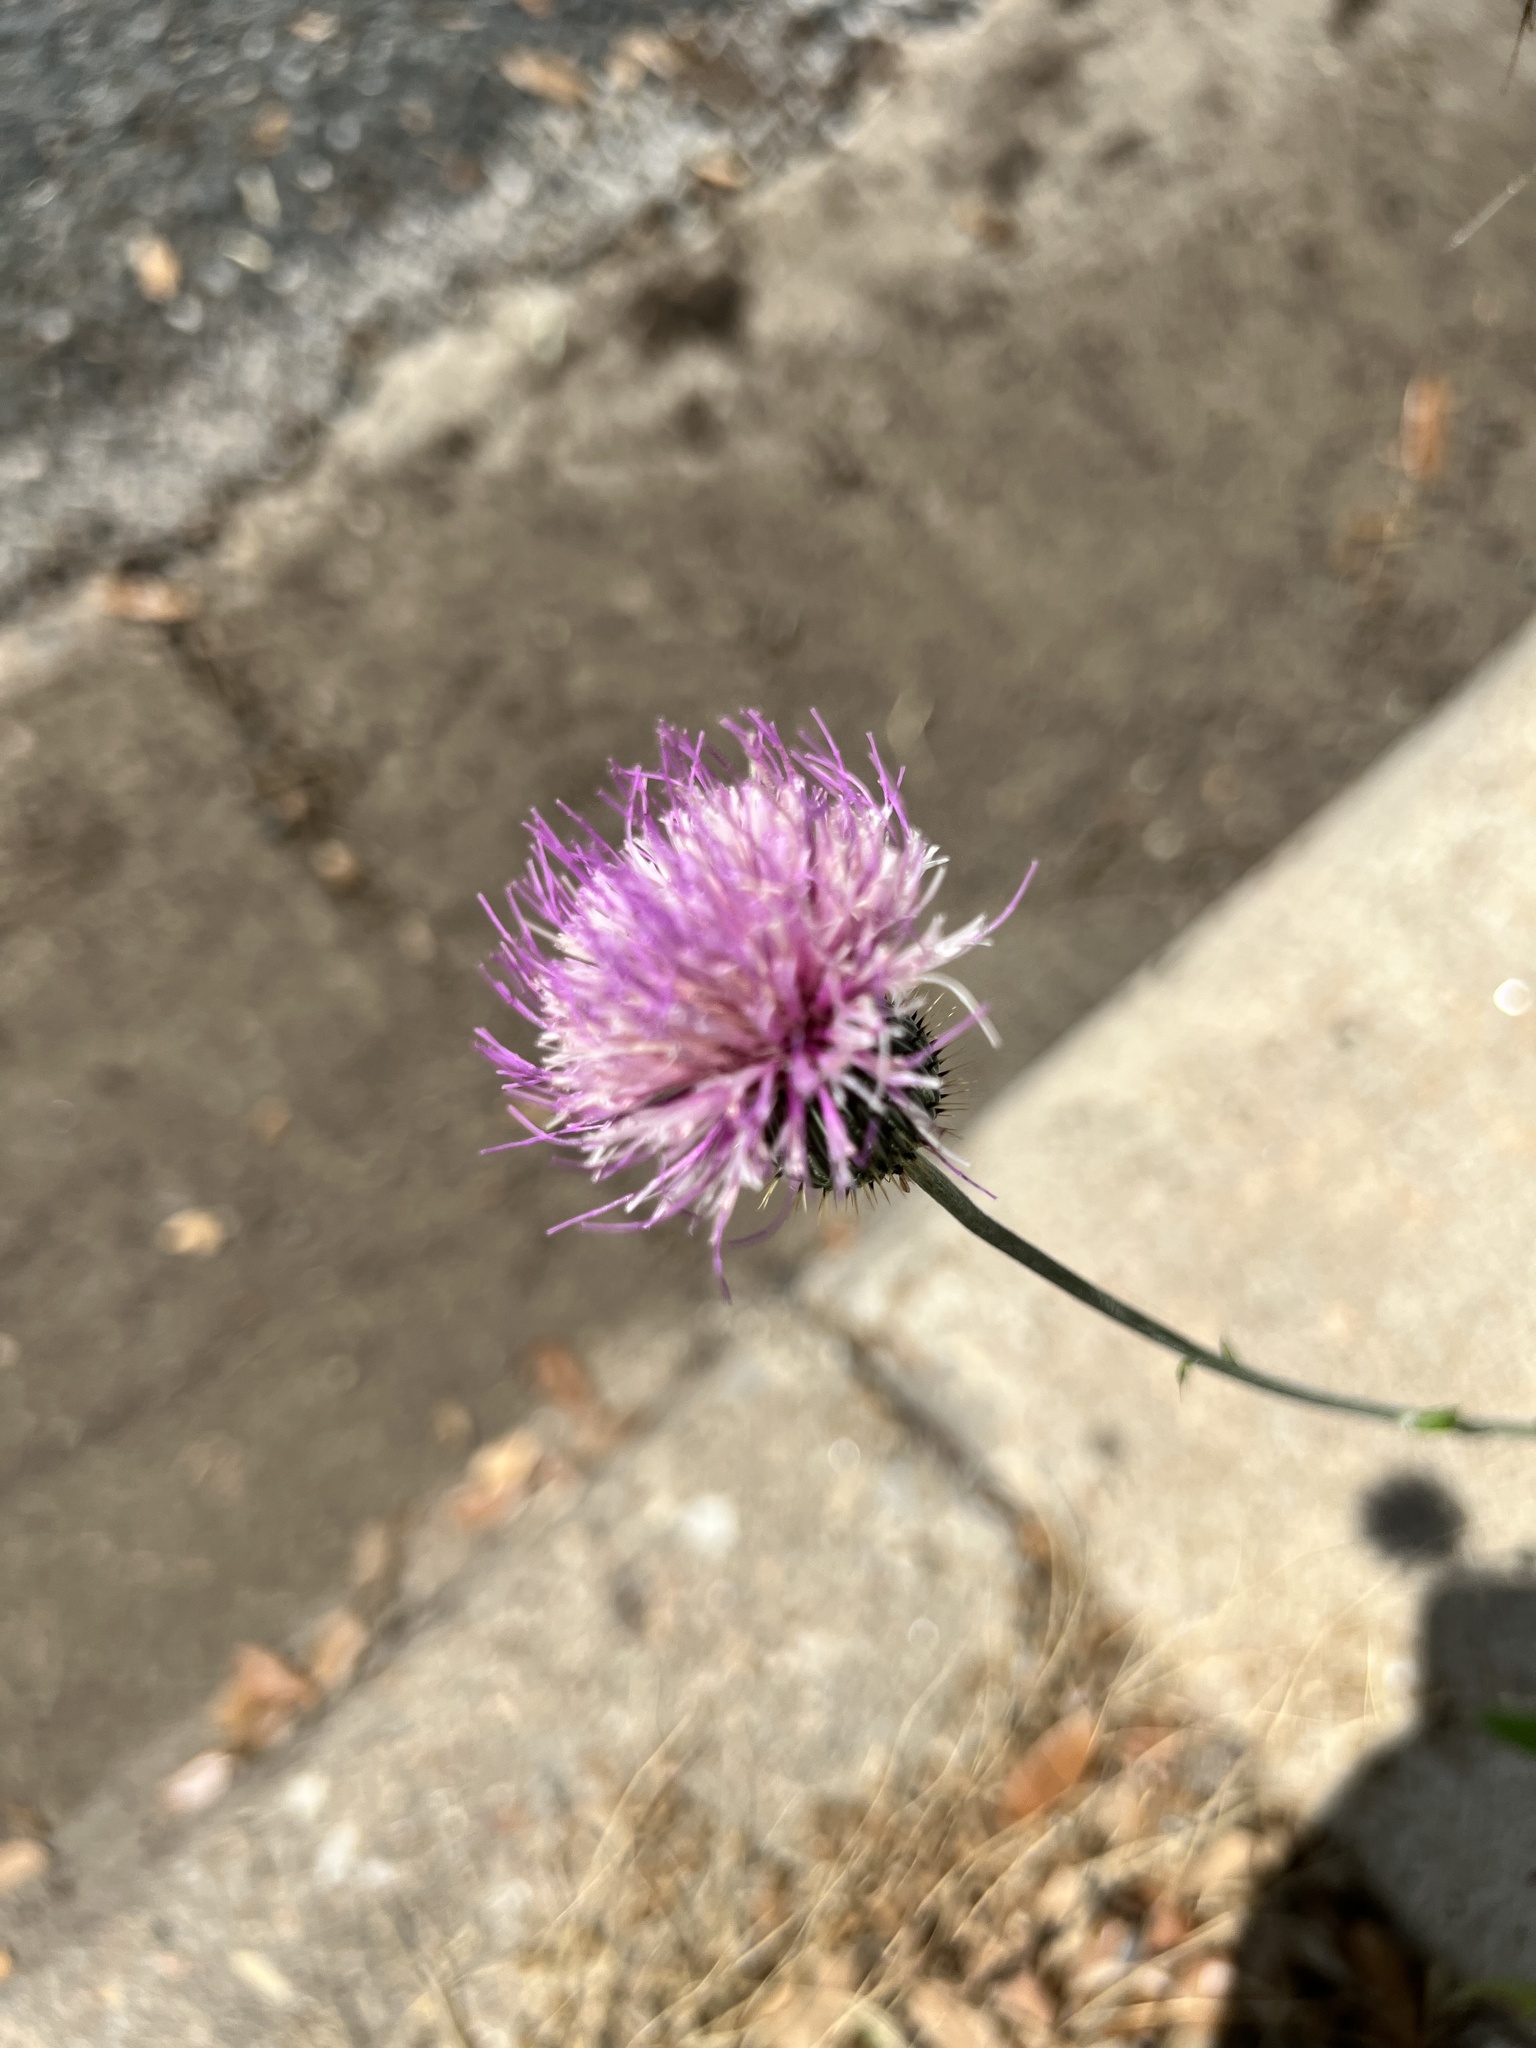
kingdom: Plantae
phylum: Tracheophyta
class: Magnoliopsida
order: Asterales
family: Asteraceae
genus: Cirsium
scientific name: Cirsium texanum
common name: Texas purple thistle
